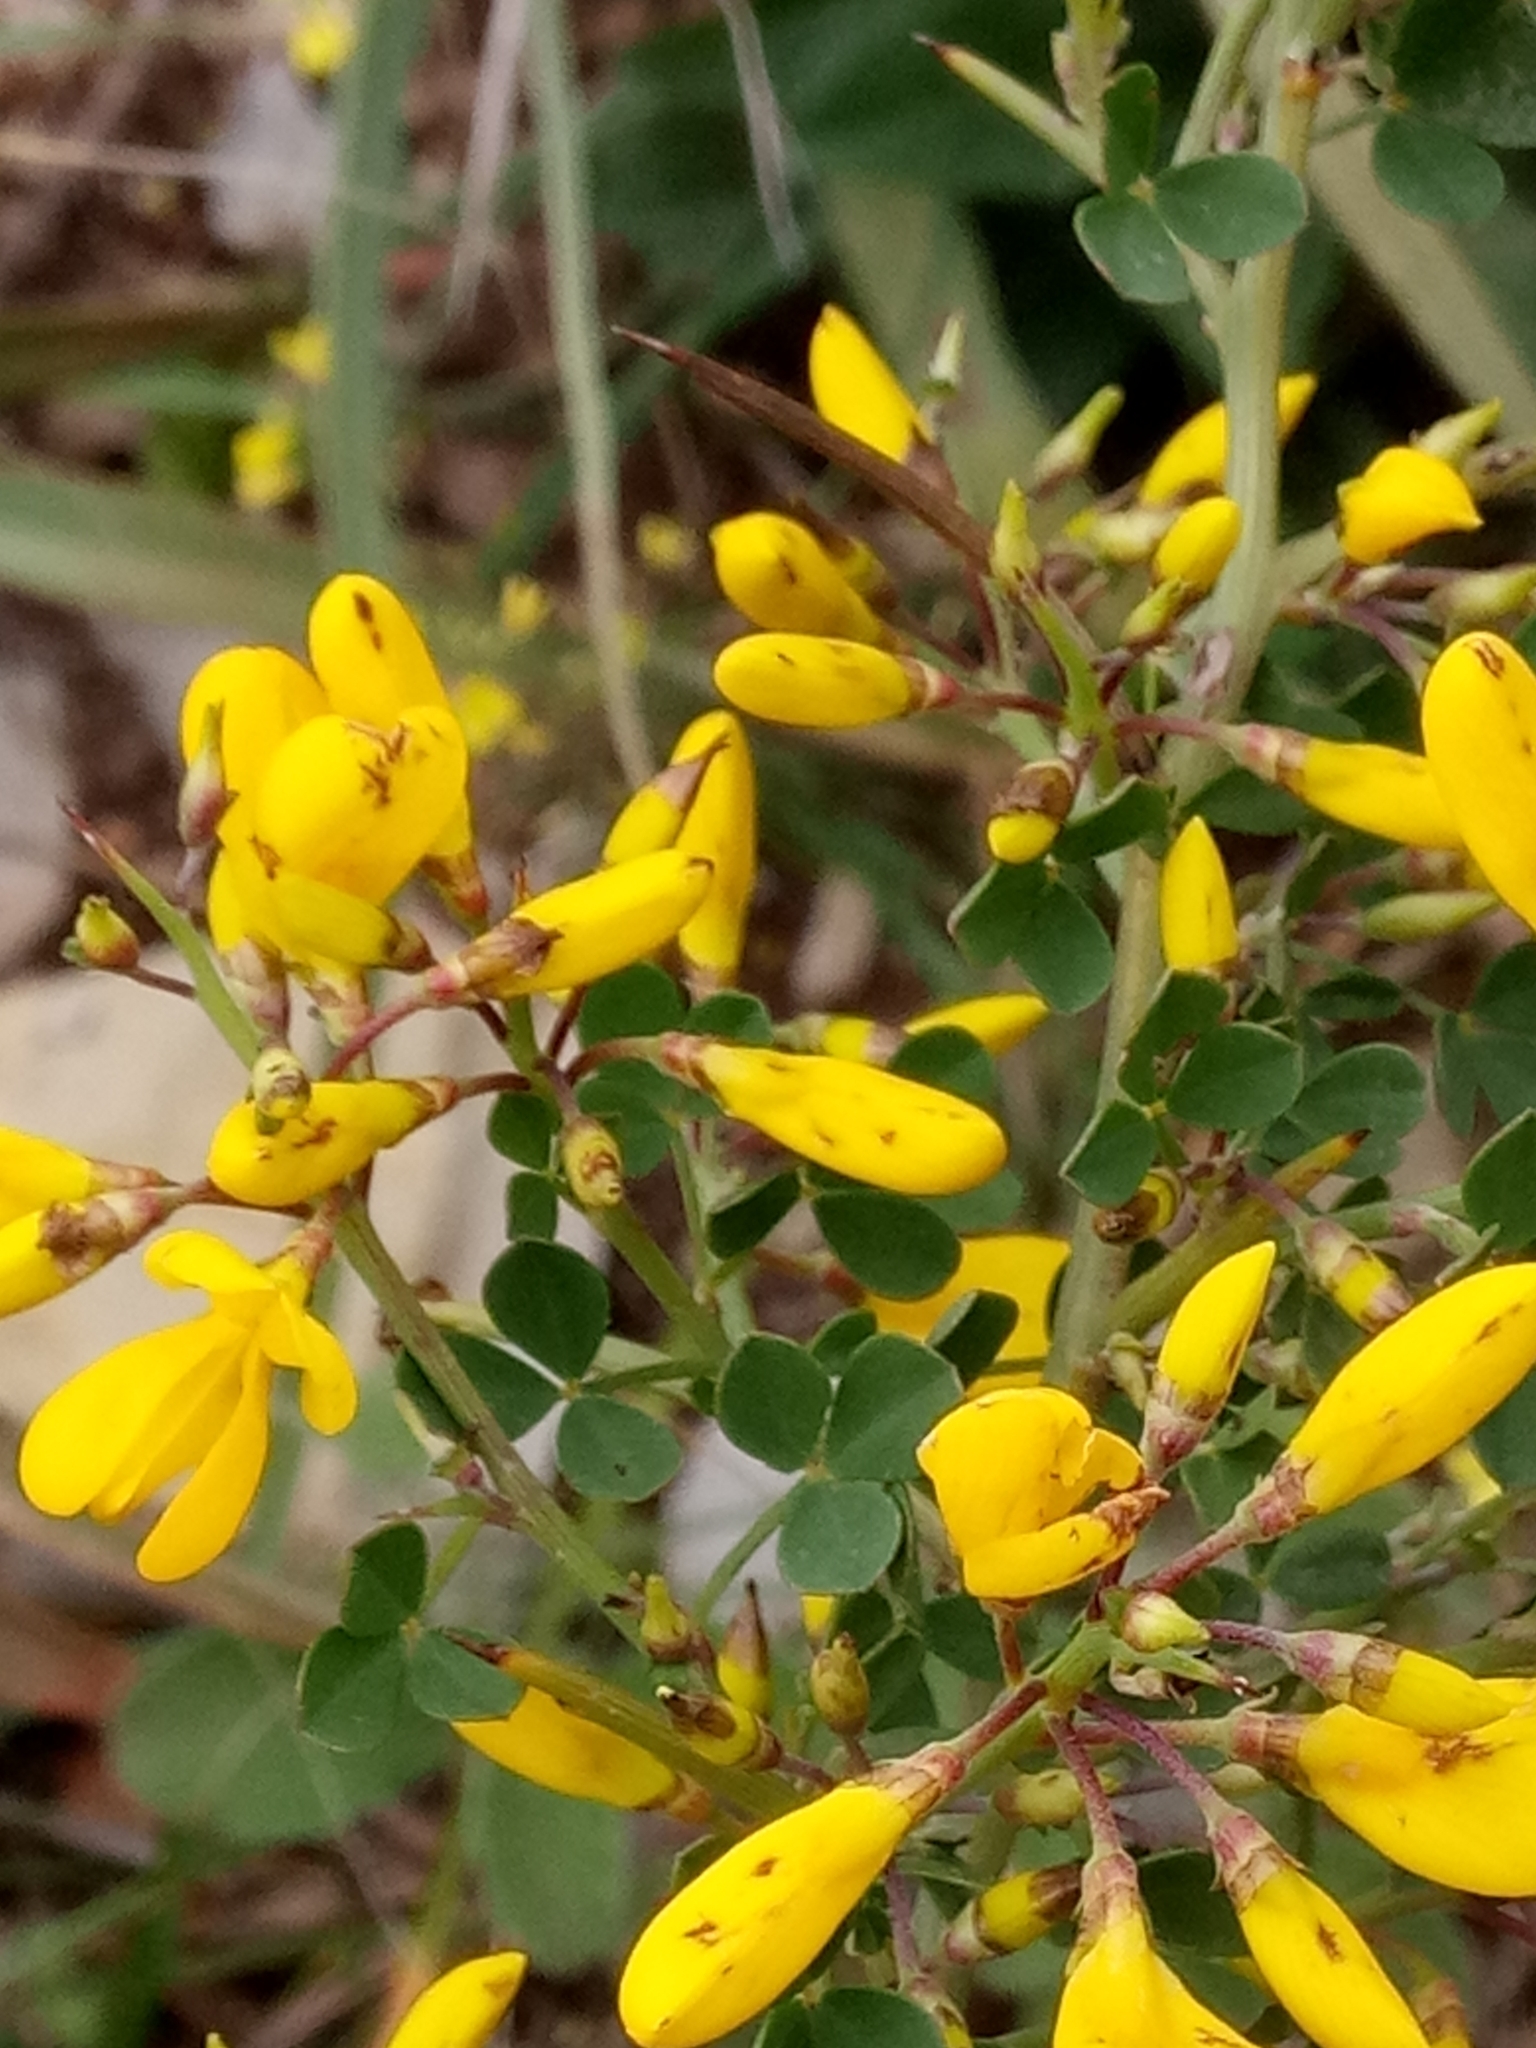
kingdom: Plantae
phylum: Tracheophyta
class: Magnoliopsida
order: Fabales
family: Fabaceae
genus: Calicotome
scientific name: Calicotome spinosa
